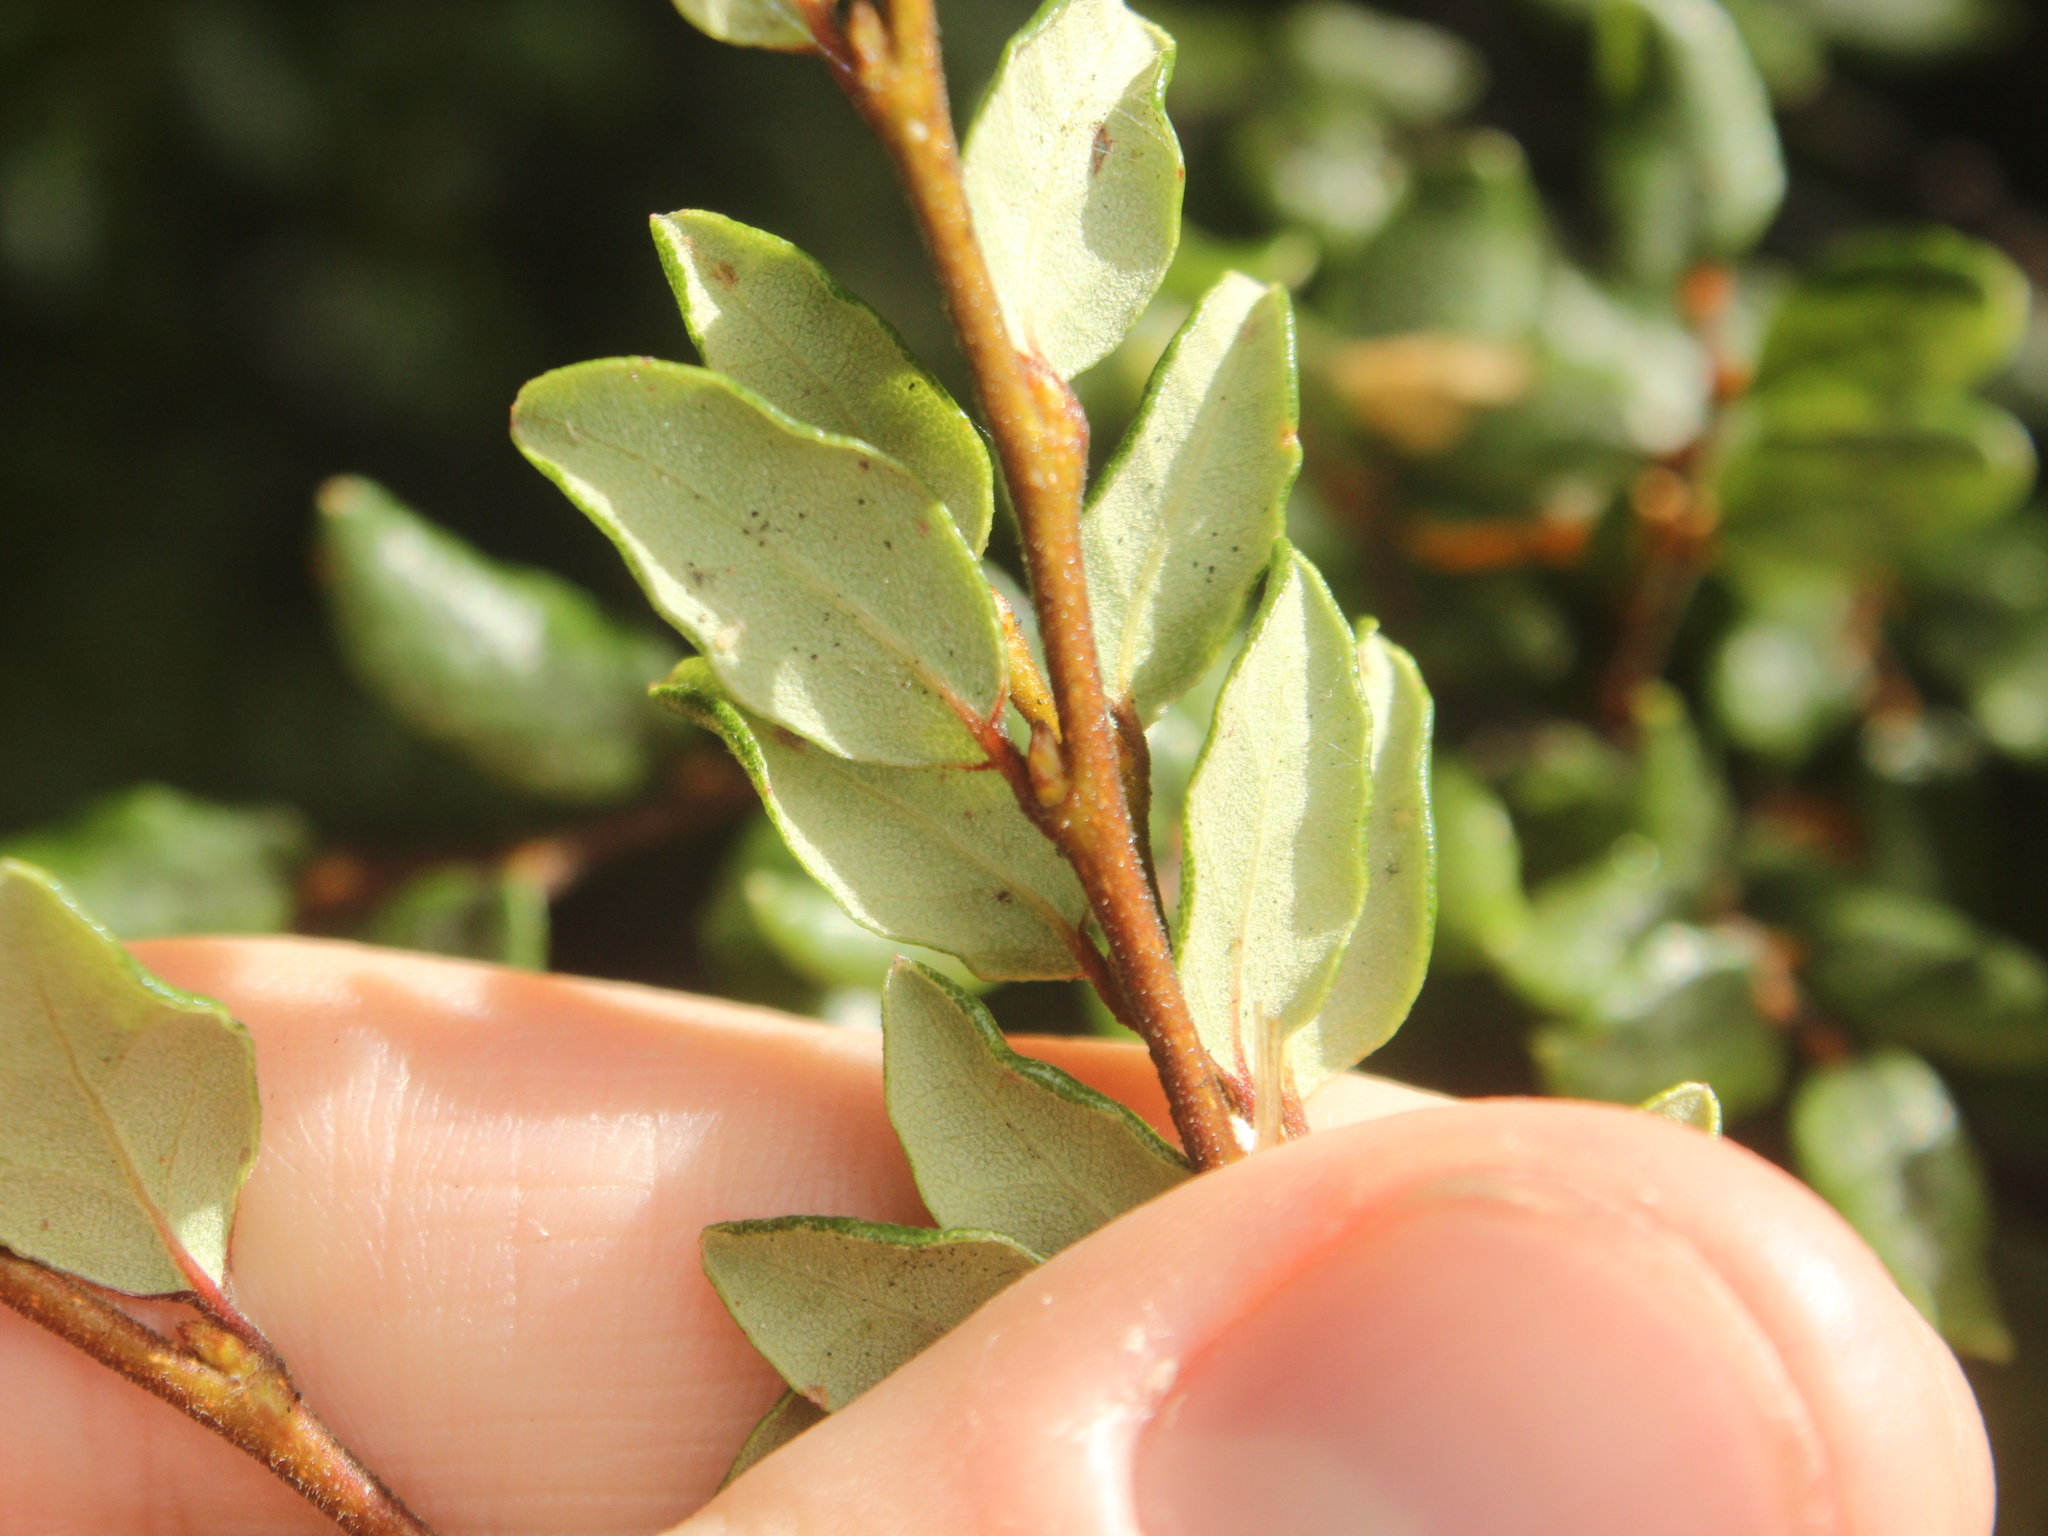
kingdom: Plantae
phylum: Tracheophyta
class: Magnoliopsida
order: Fagales
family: Nothofagaceae
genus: Nothofagus
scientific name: Nothofagus cliffortioides
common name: Mountain beech
